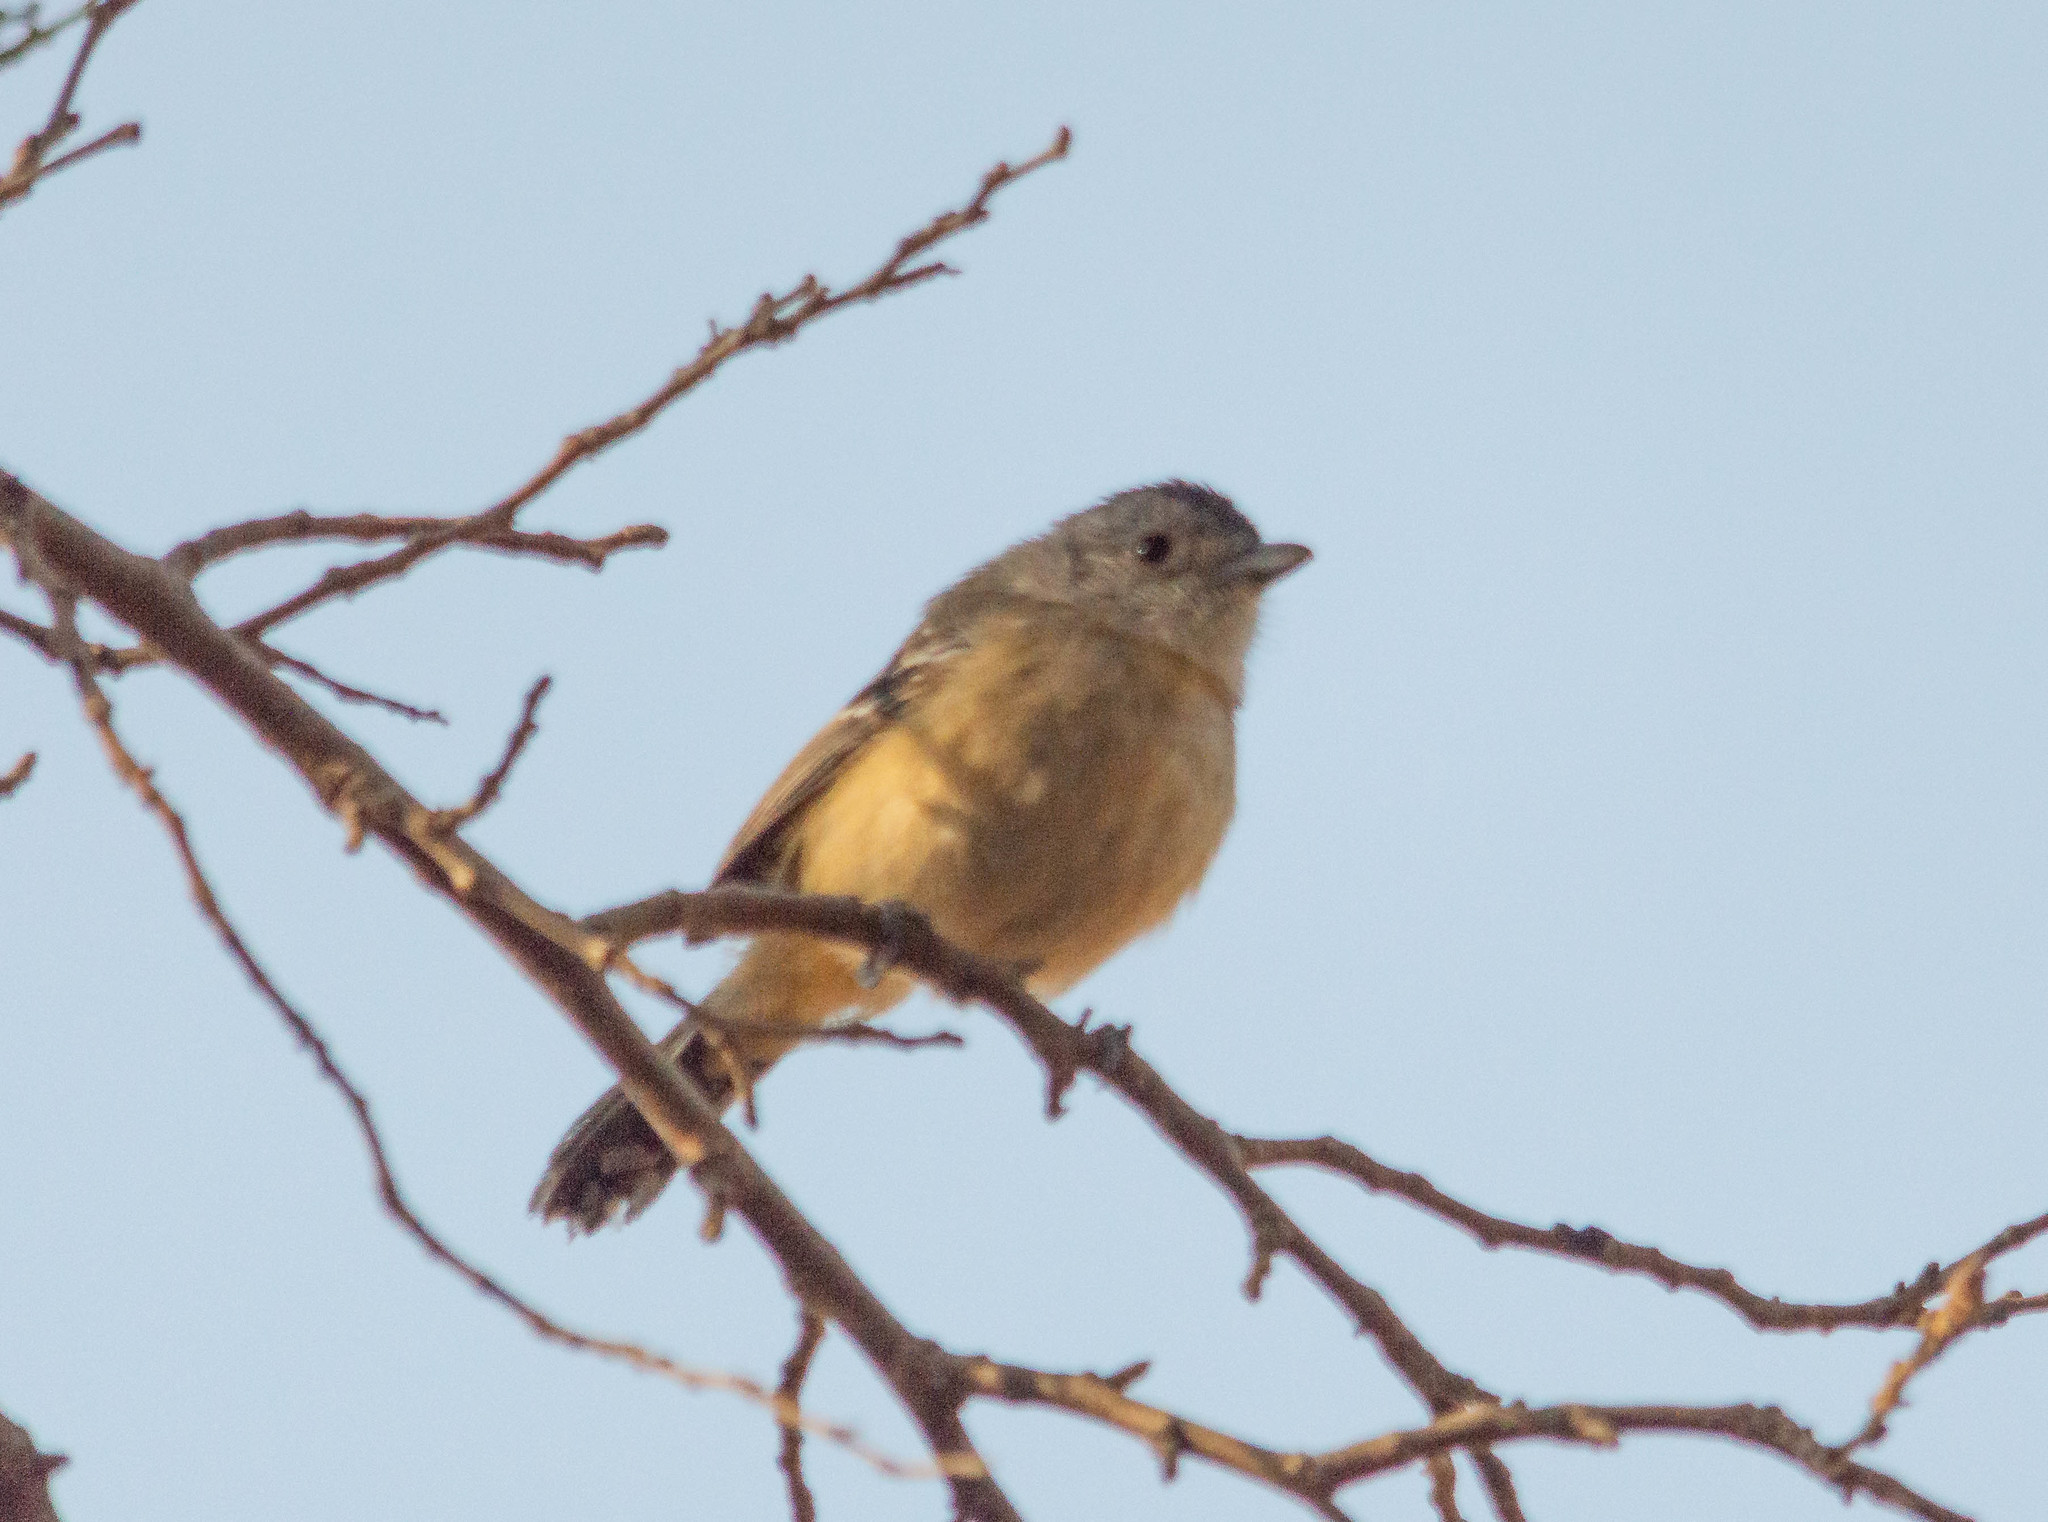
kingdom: Animalia
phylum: Chordata
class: Aves
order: Passeriformes
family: Thamnophilidae
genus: Thamnophilus
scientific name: Thamnophilus caerulescens
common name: Variable antshrike
